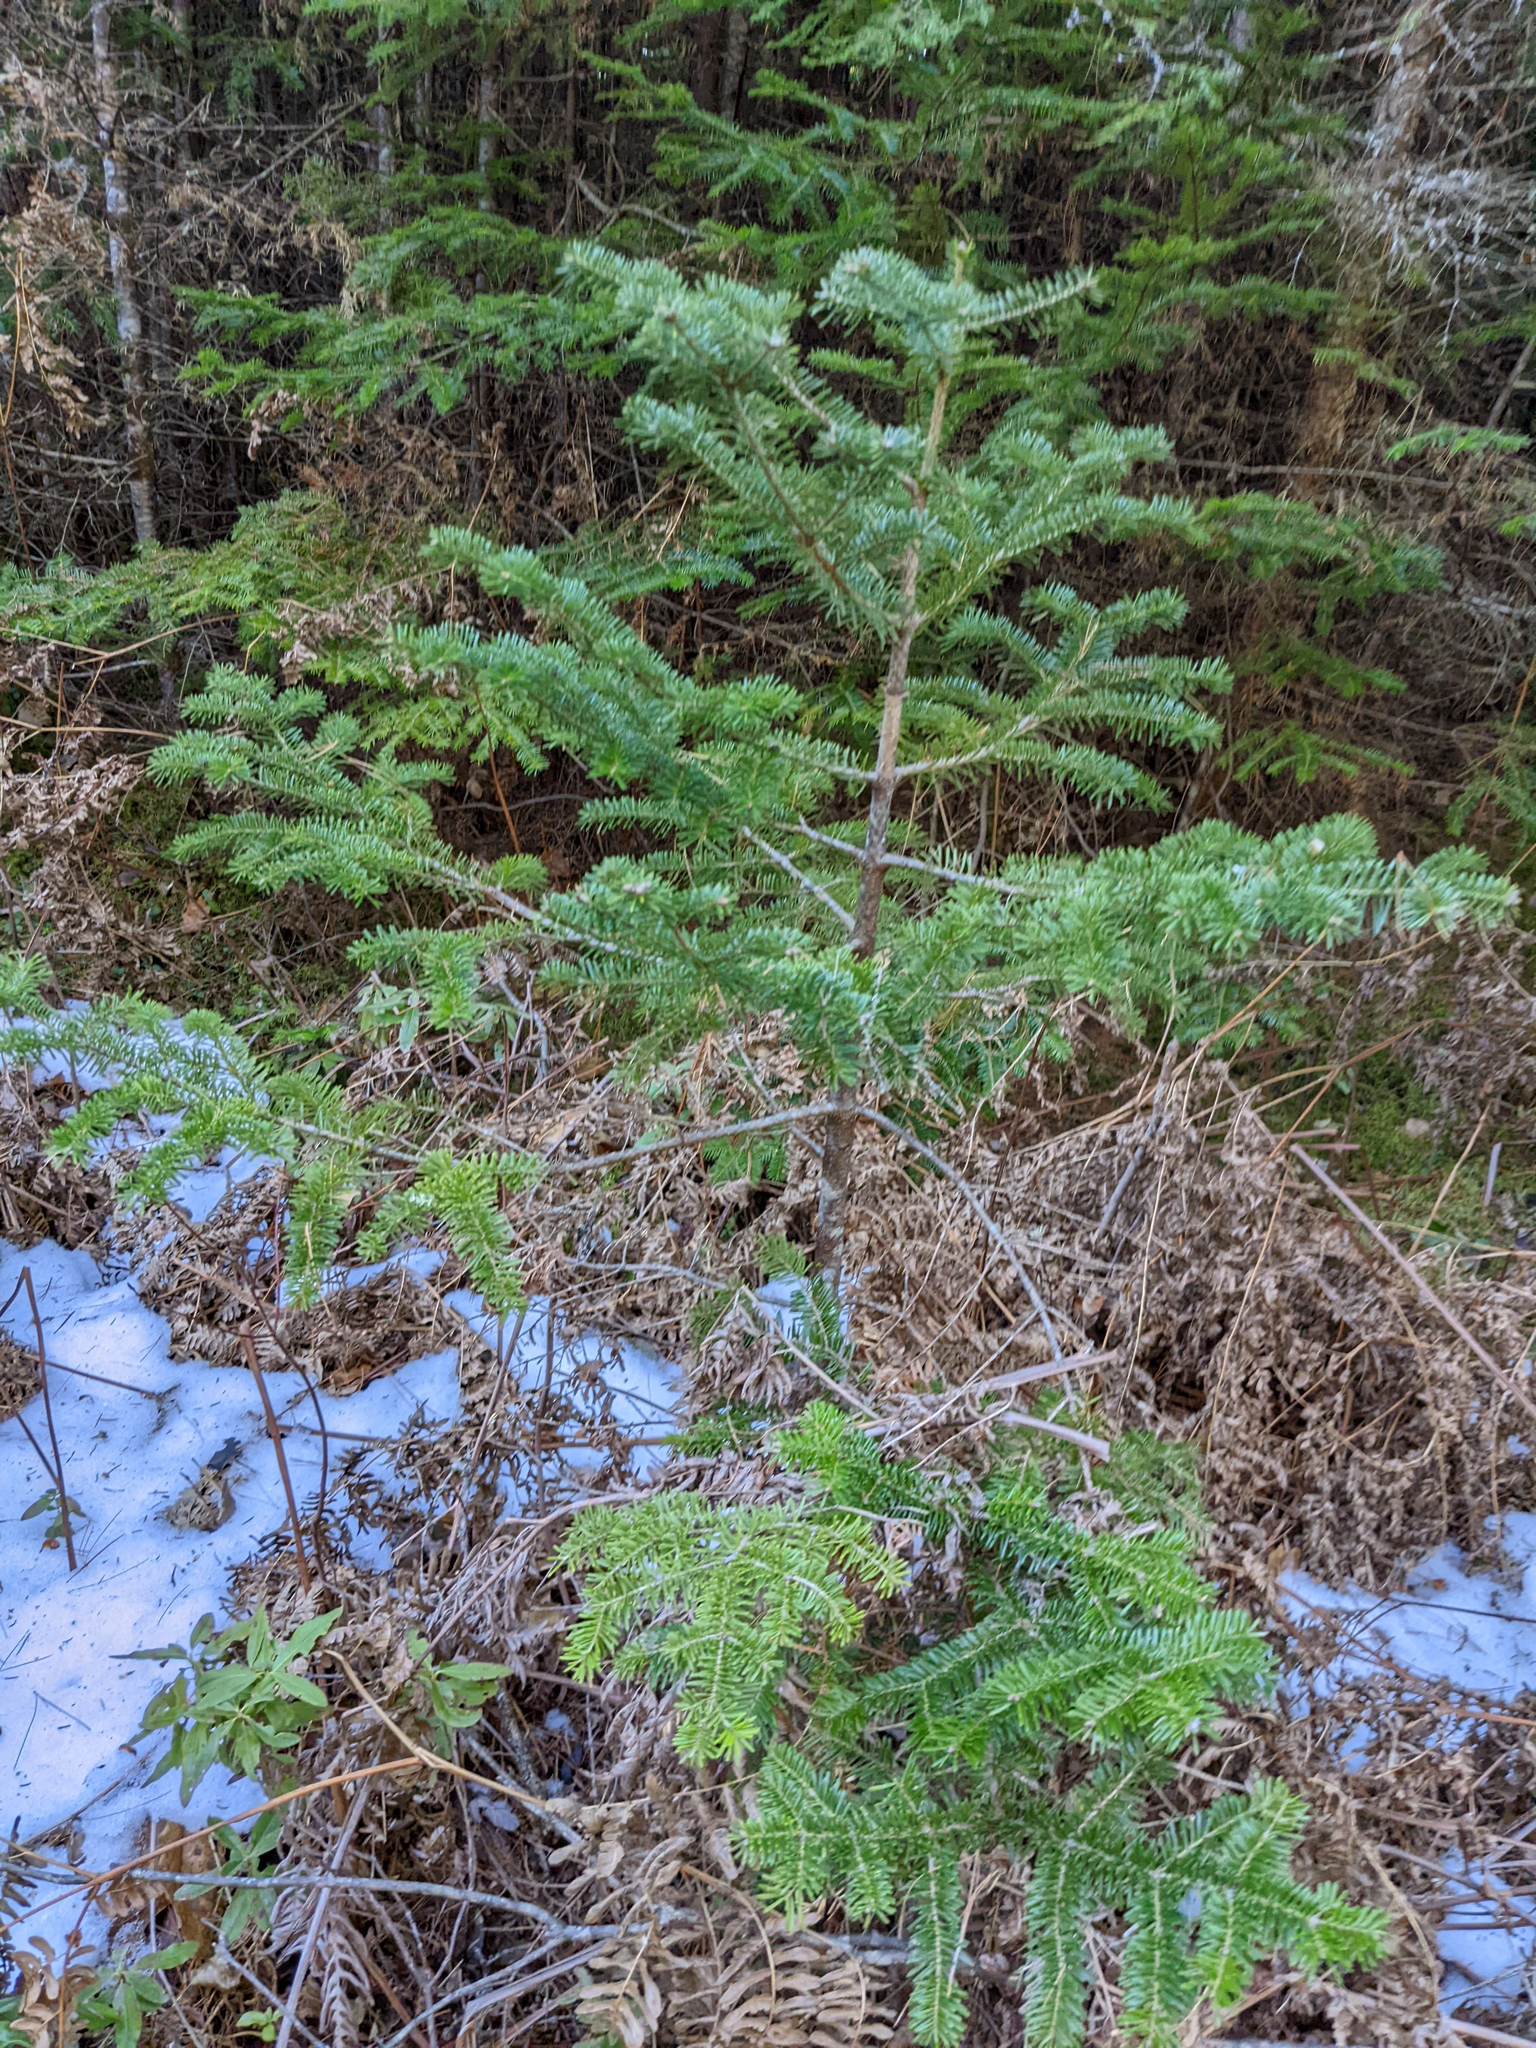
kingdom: Plantae
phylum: Tracheophyta
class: Pinopsida
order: Pinales
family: Pinaceae
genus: Abies
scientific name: Abies balsamea
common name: Balsam fir
